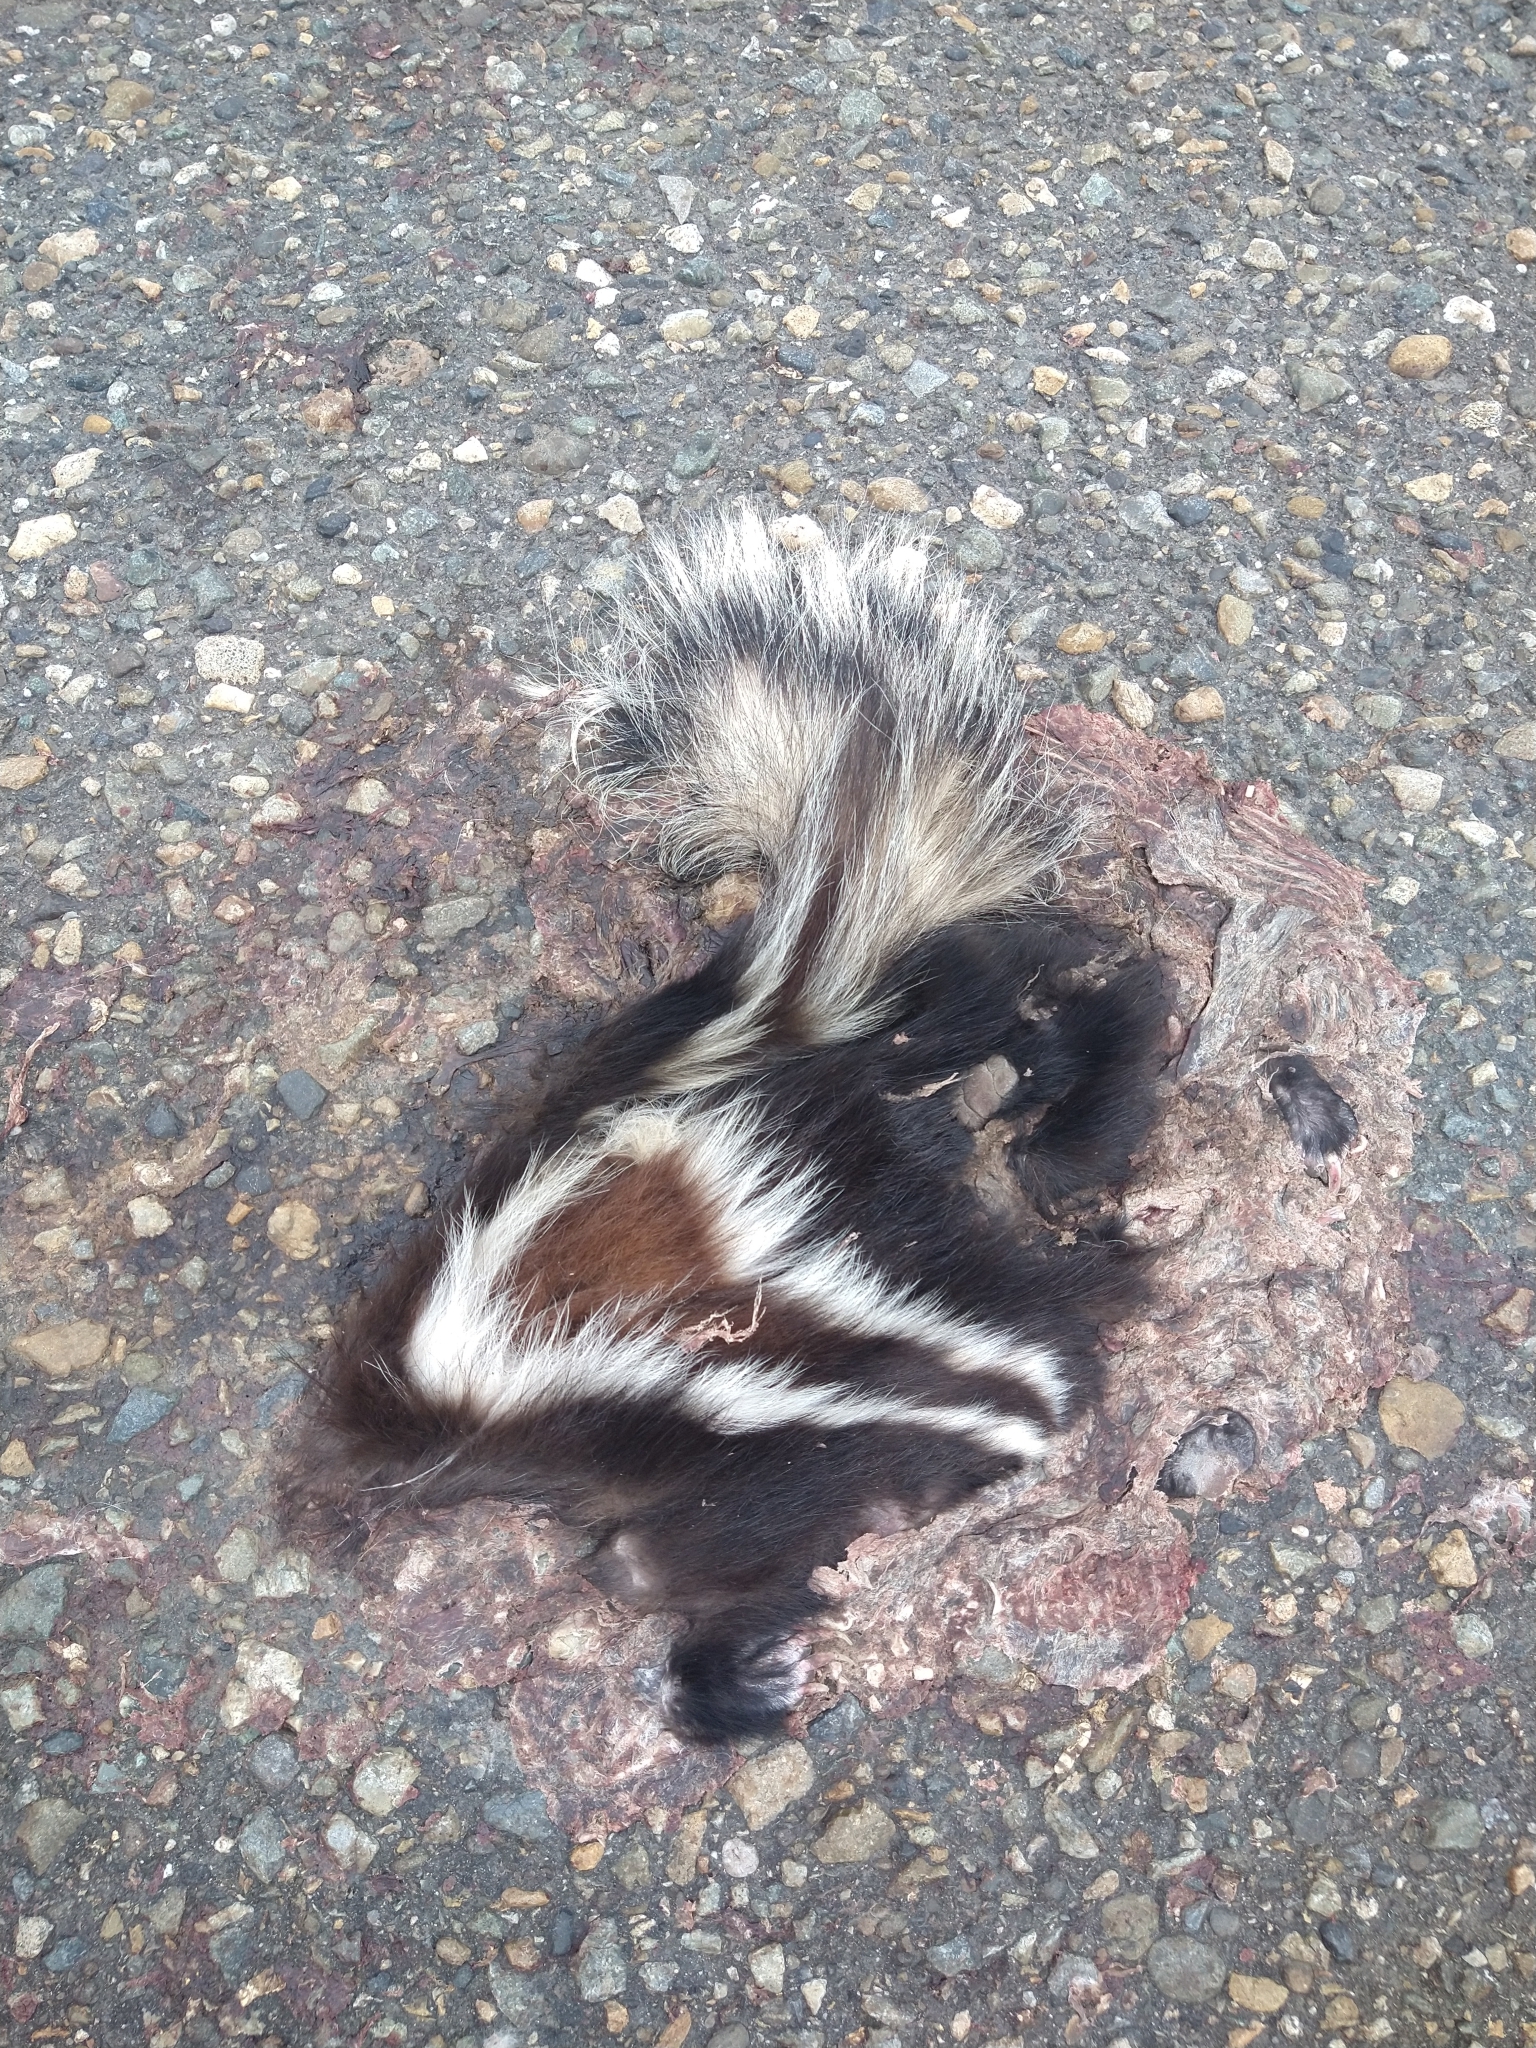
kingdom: Animalia
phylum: Chordata
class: Mammalia
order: Carnivora
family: Mephitidae
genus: Conepatus
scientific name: Conepatus chinga
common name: Molina's hog-nosed skunk
